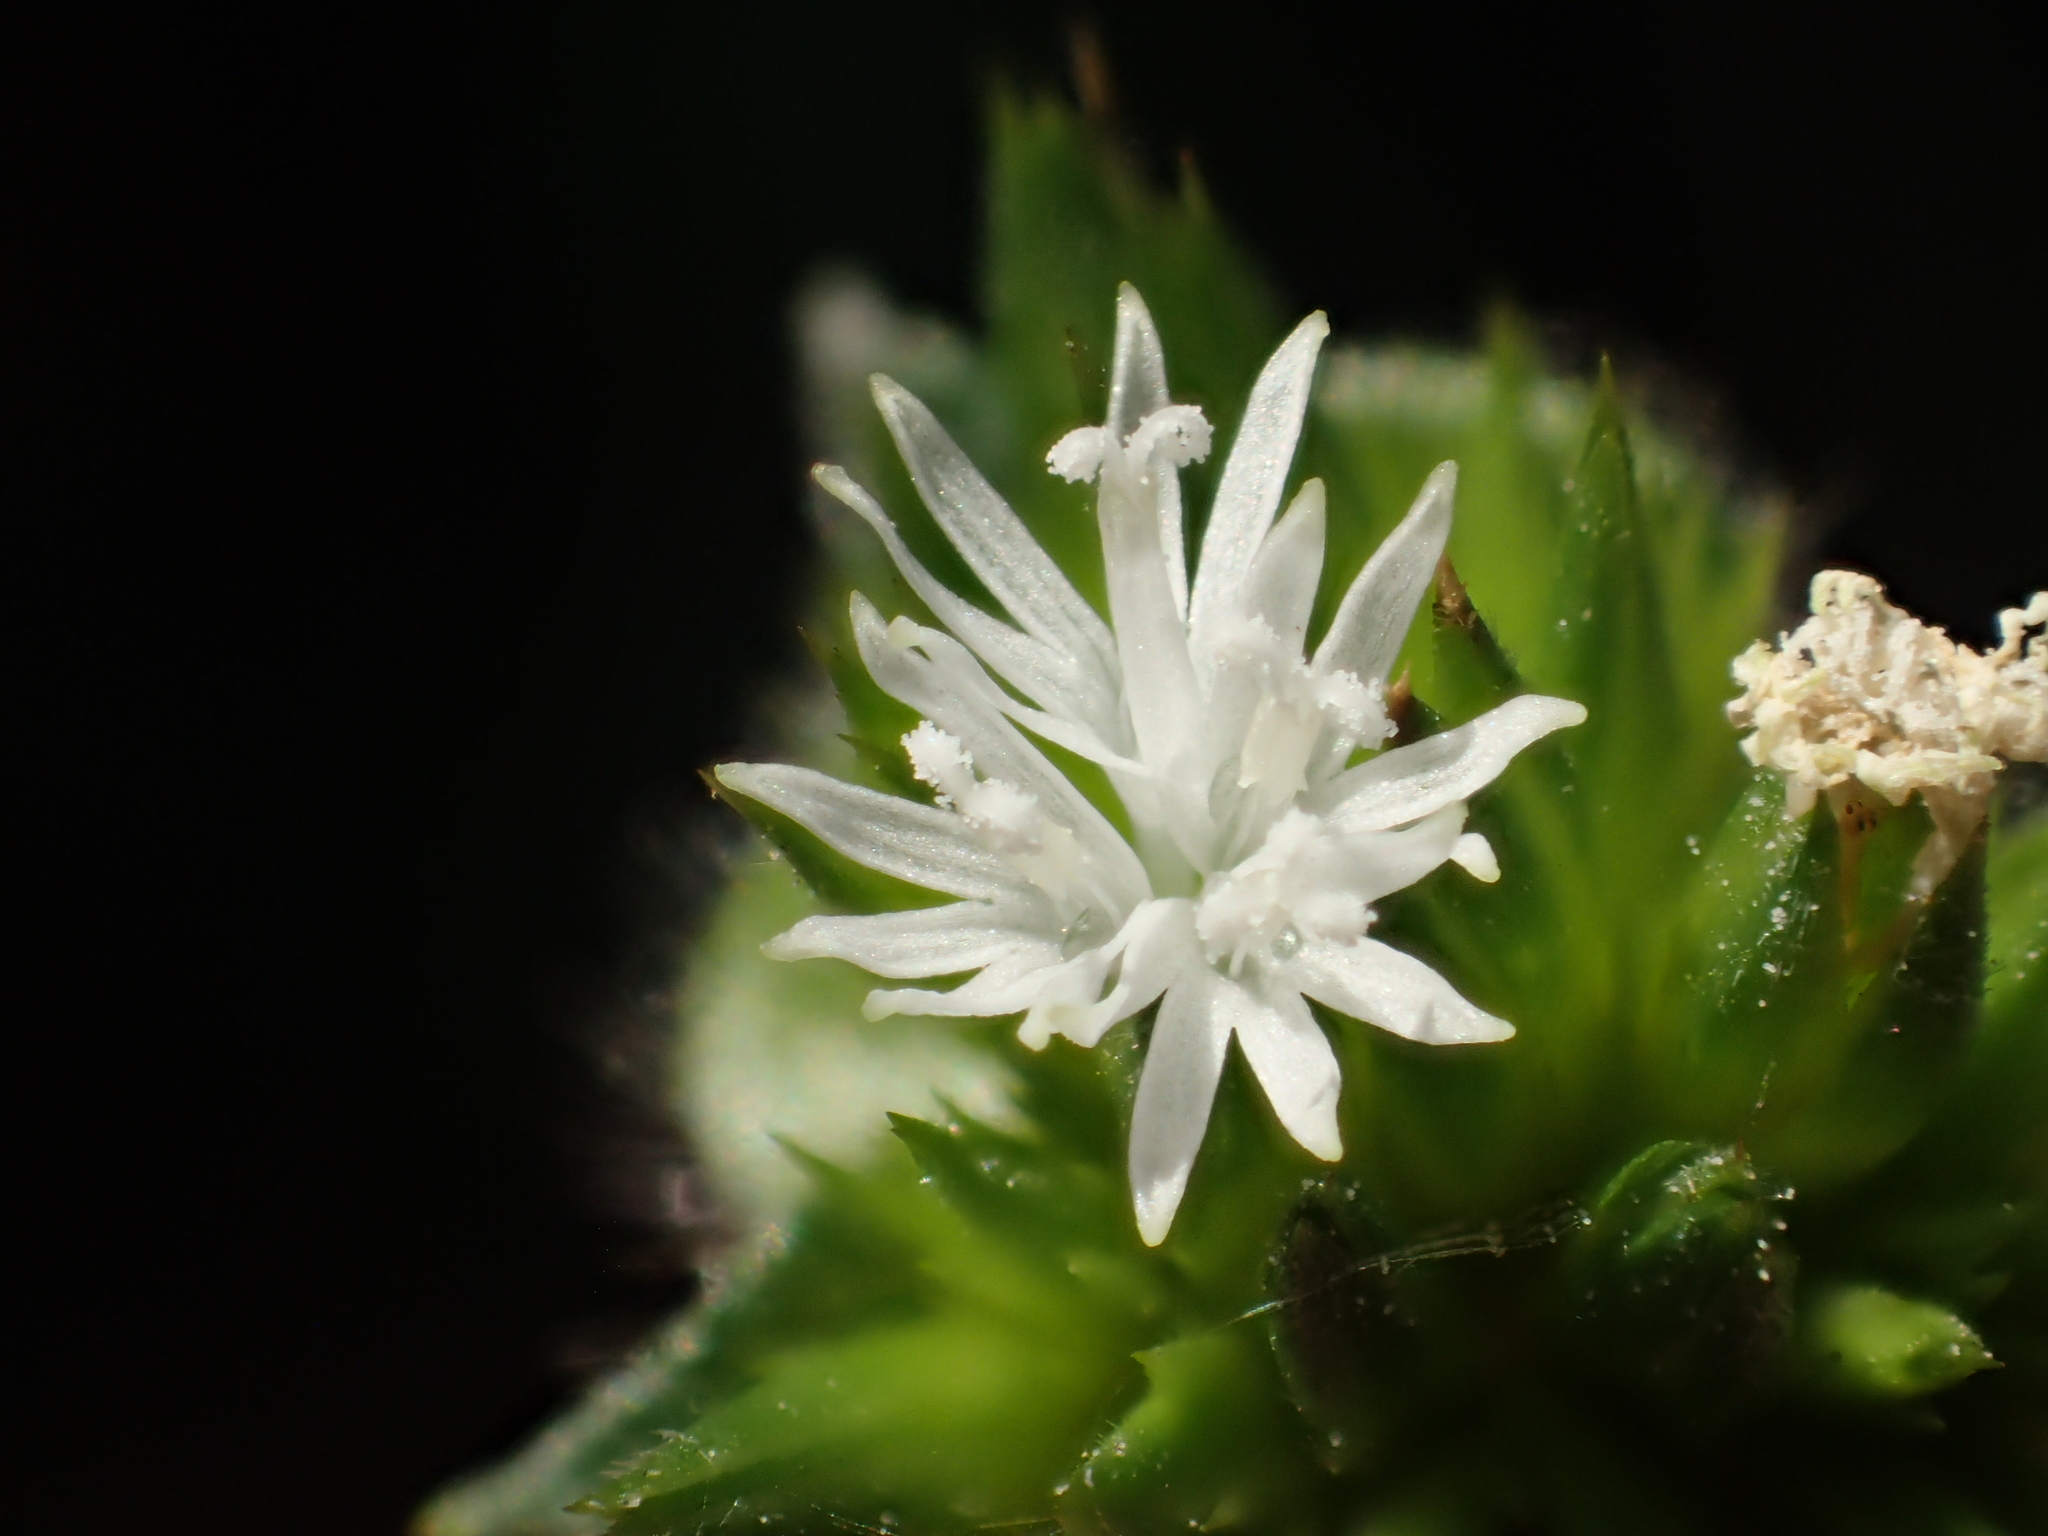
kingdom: Plantae
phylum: Tracheophyta
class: Magnoliopsida
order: Asterales
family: Asteraceae
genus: Elephantopus
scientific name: Elephantopus mollis
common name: Soft elephantsfoot
